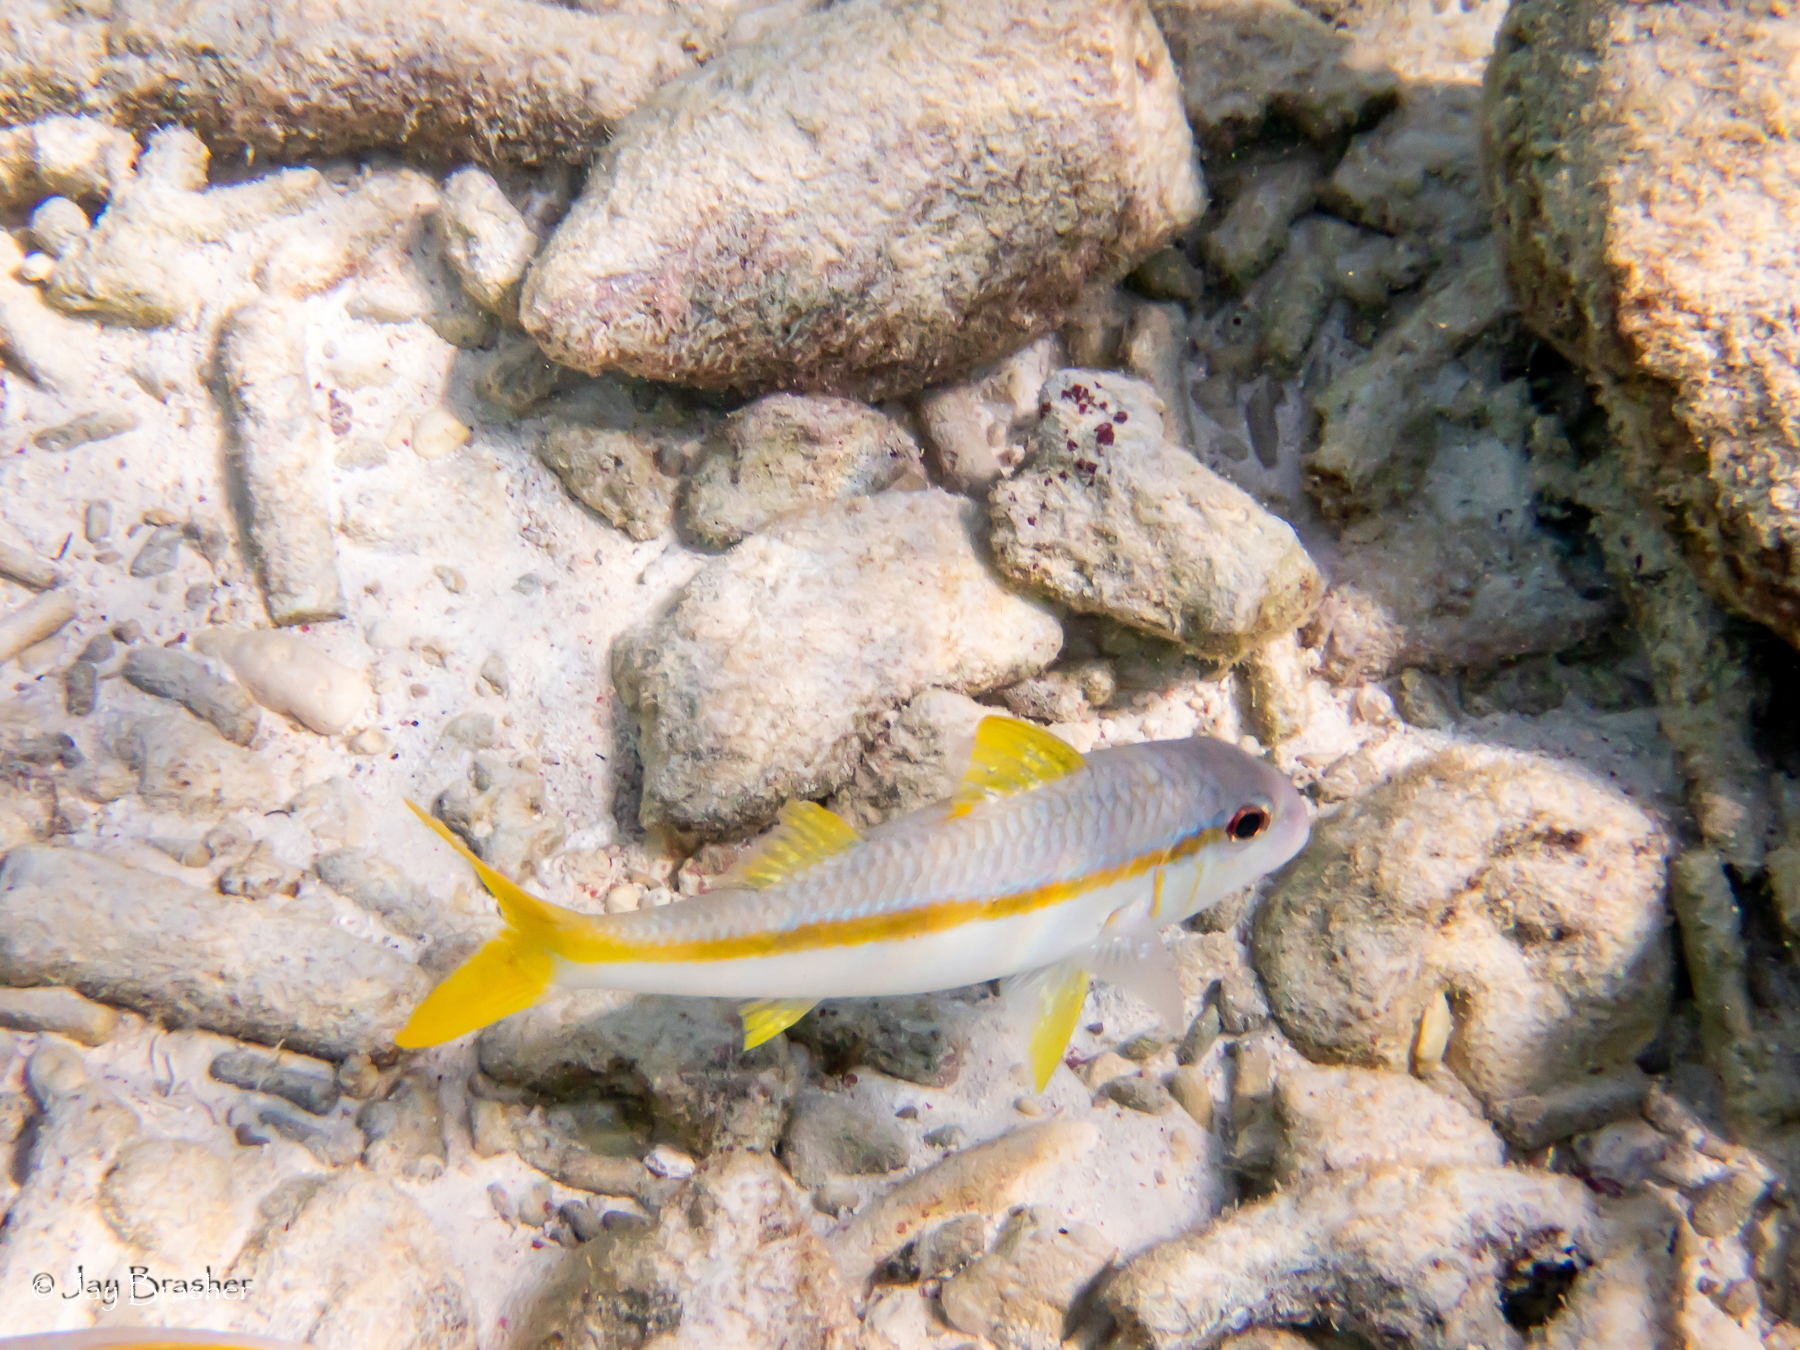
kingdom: Animalia
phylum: Chordata
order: Perciformes
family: Mullidae
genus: Mulloidichthys
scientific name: Mulloidichthys martinicus
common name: Yellow goatfish
